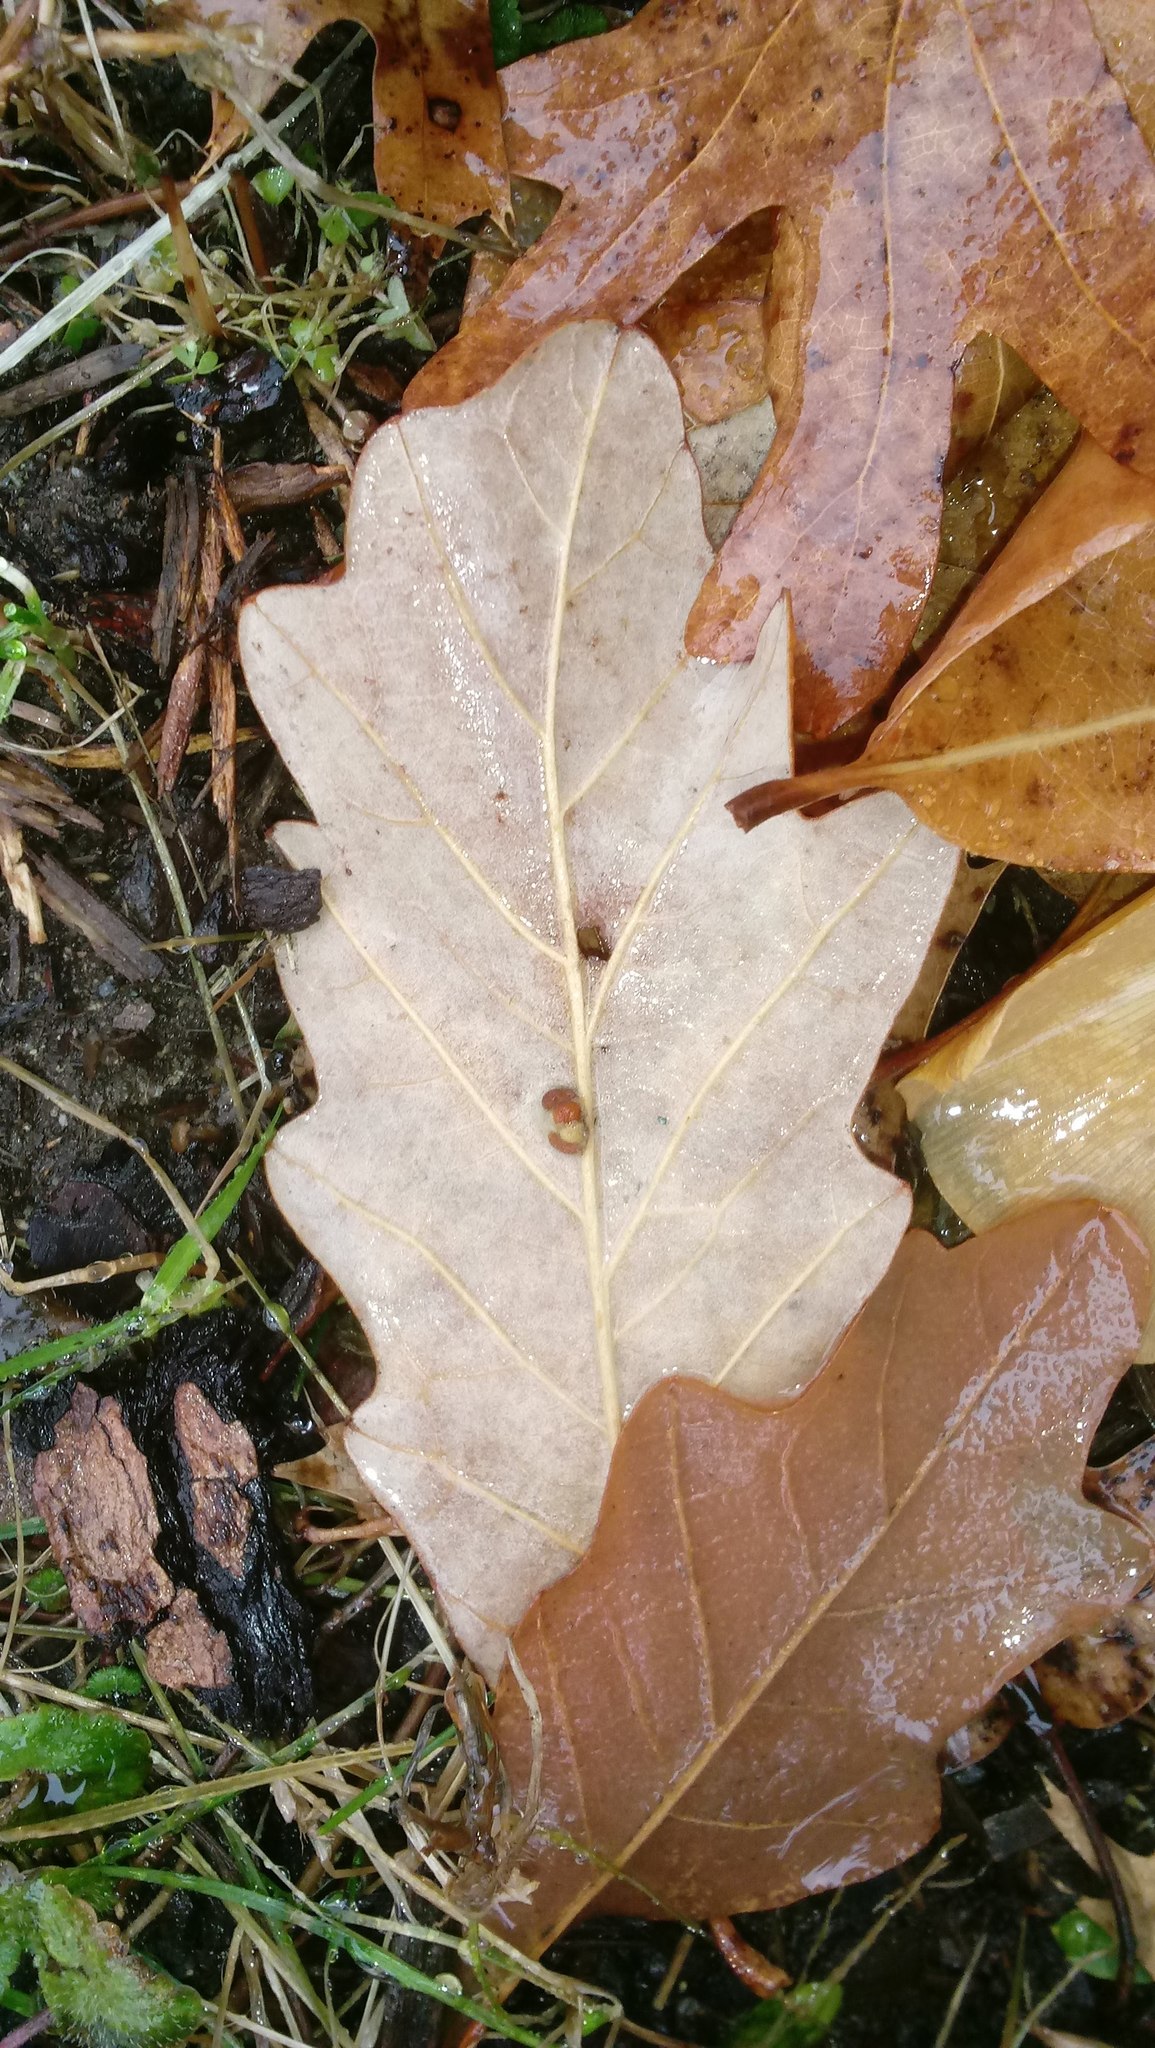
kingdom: Animalia
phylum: Arthropoda
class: Insecta
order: Hymenoptera
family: Cynipidae
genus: Andricus
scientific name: Andricus Druon ignotum
